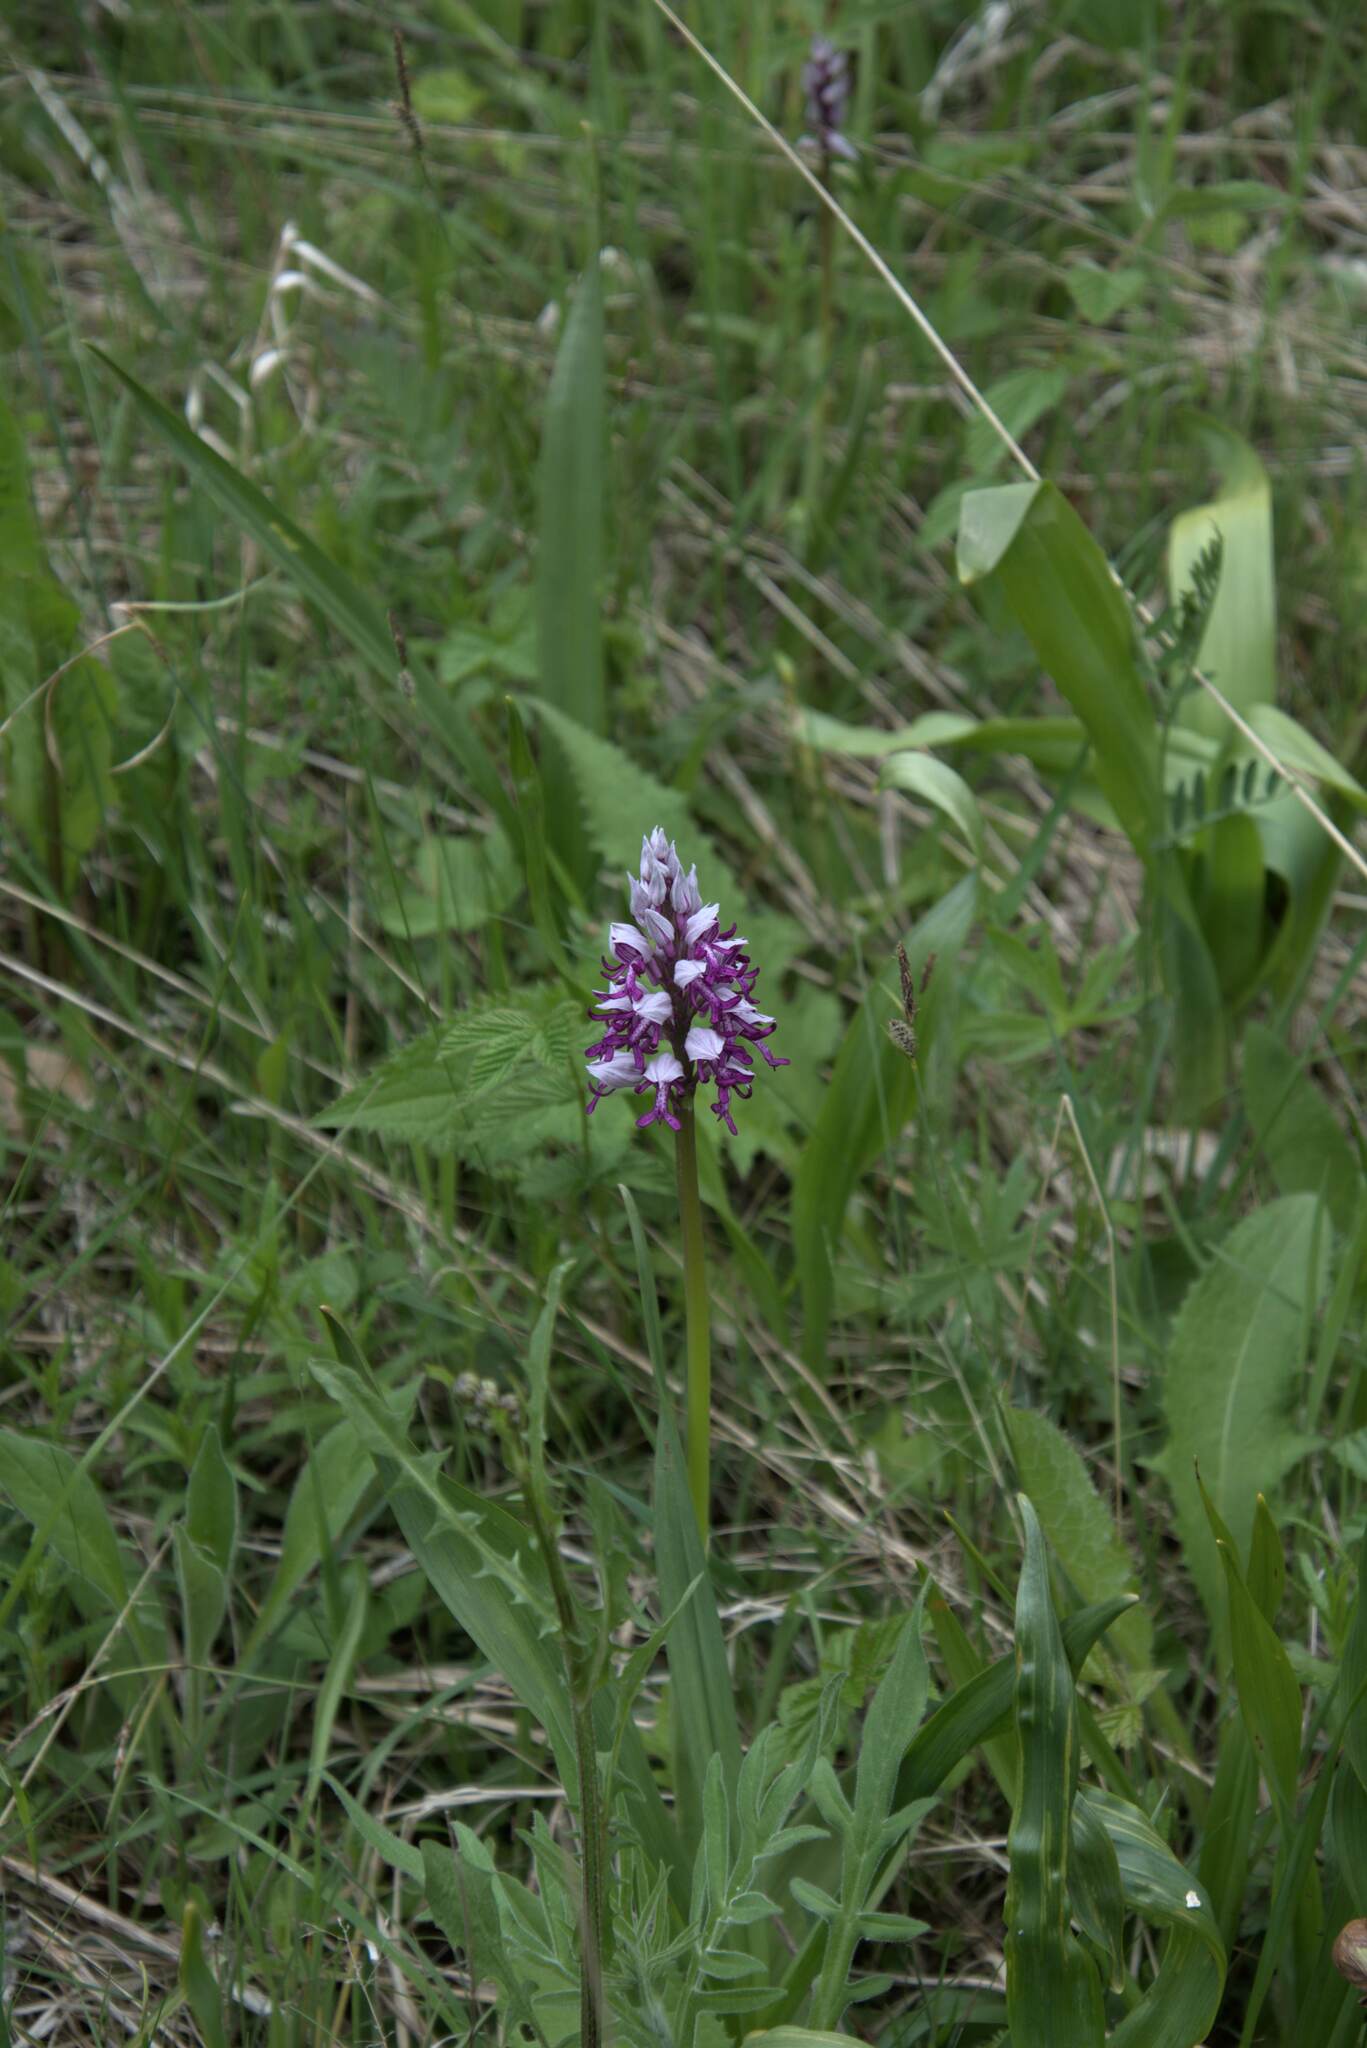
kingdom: Plantae
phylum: Tracheophyta
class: Liliopsida
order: Asparagales
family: Orchidaceae
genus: Orchis
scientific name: Orchis militaris
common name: Military orchid
